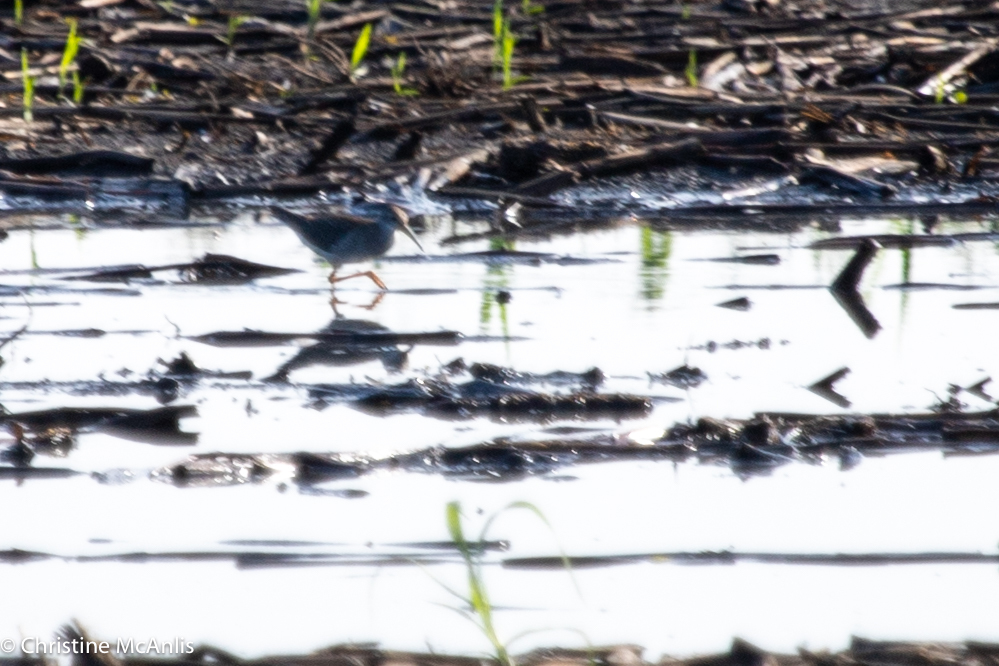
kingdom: Animalia
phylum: Chordata
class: Aves
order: Charadriiformes
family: Scolopacidae
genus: Tringa
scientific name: Tringa flavipes
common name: Lesser yellowlegs
